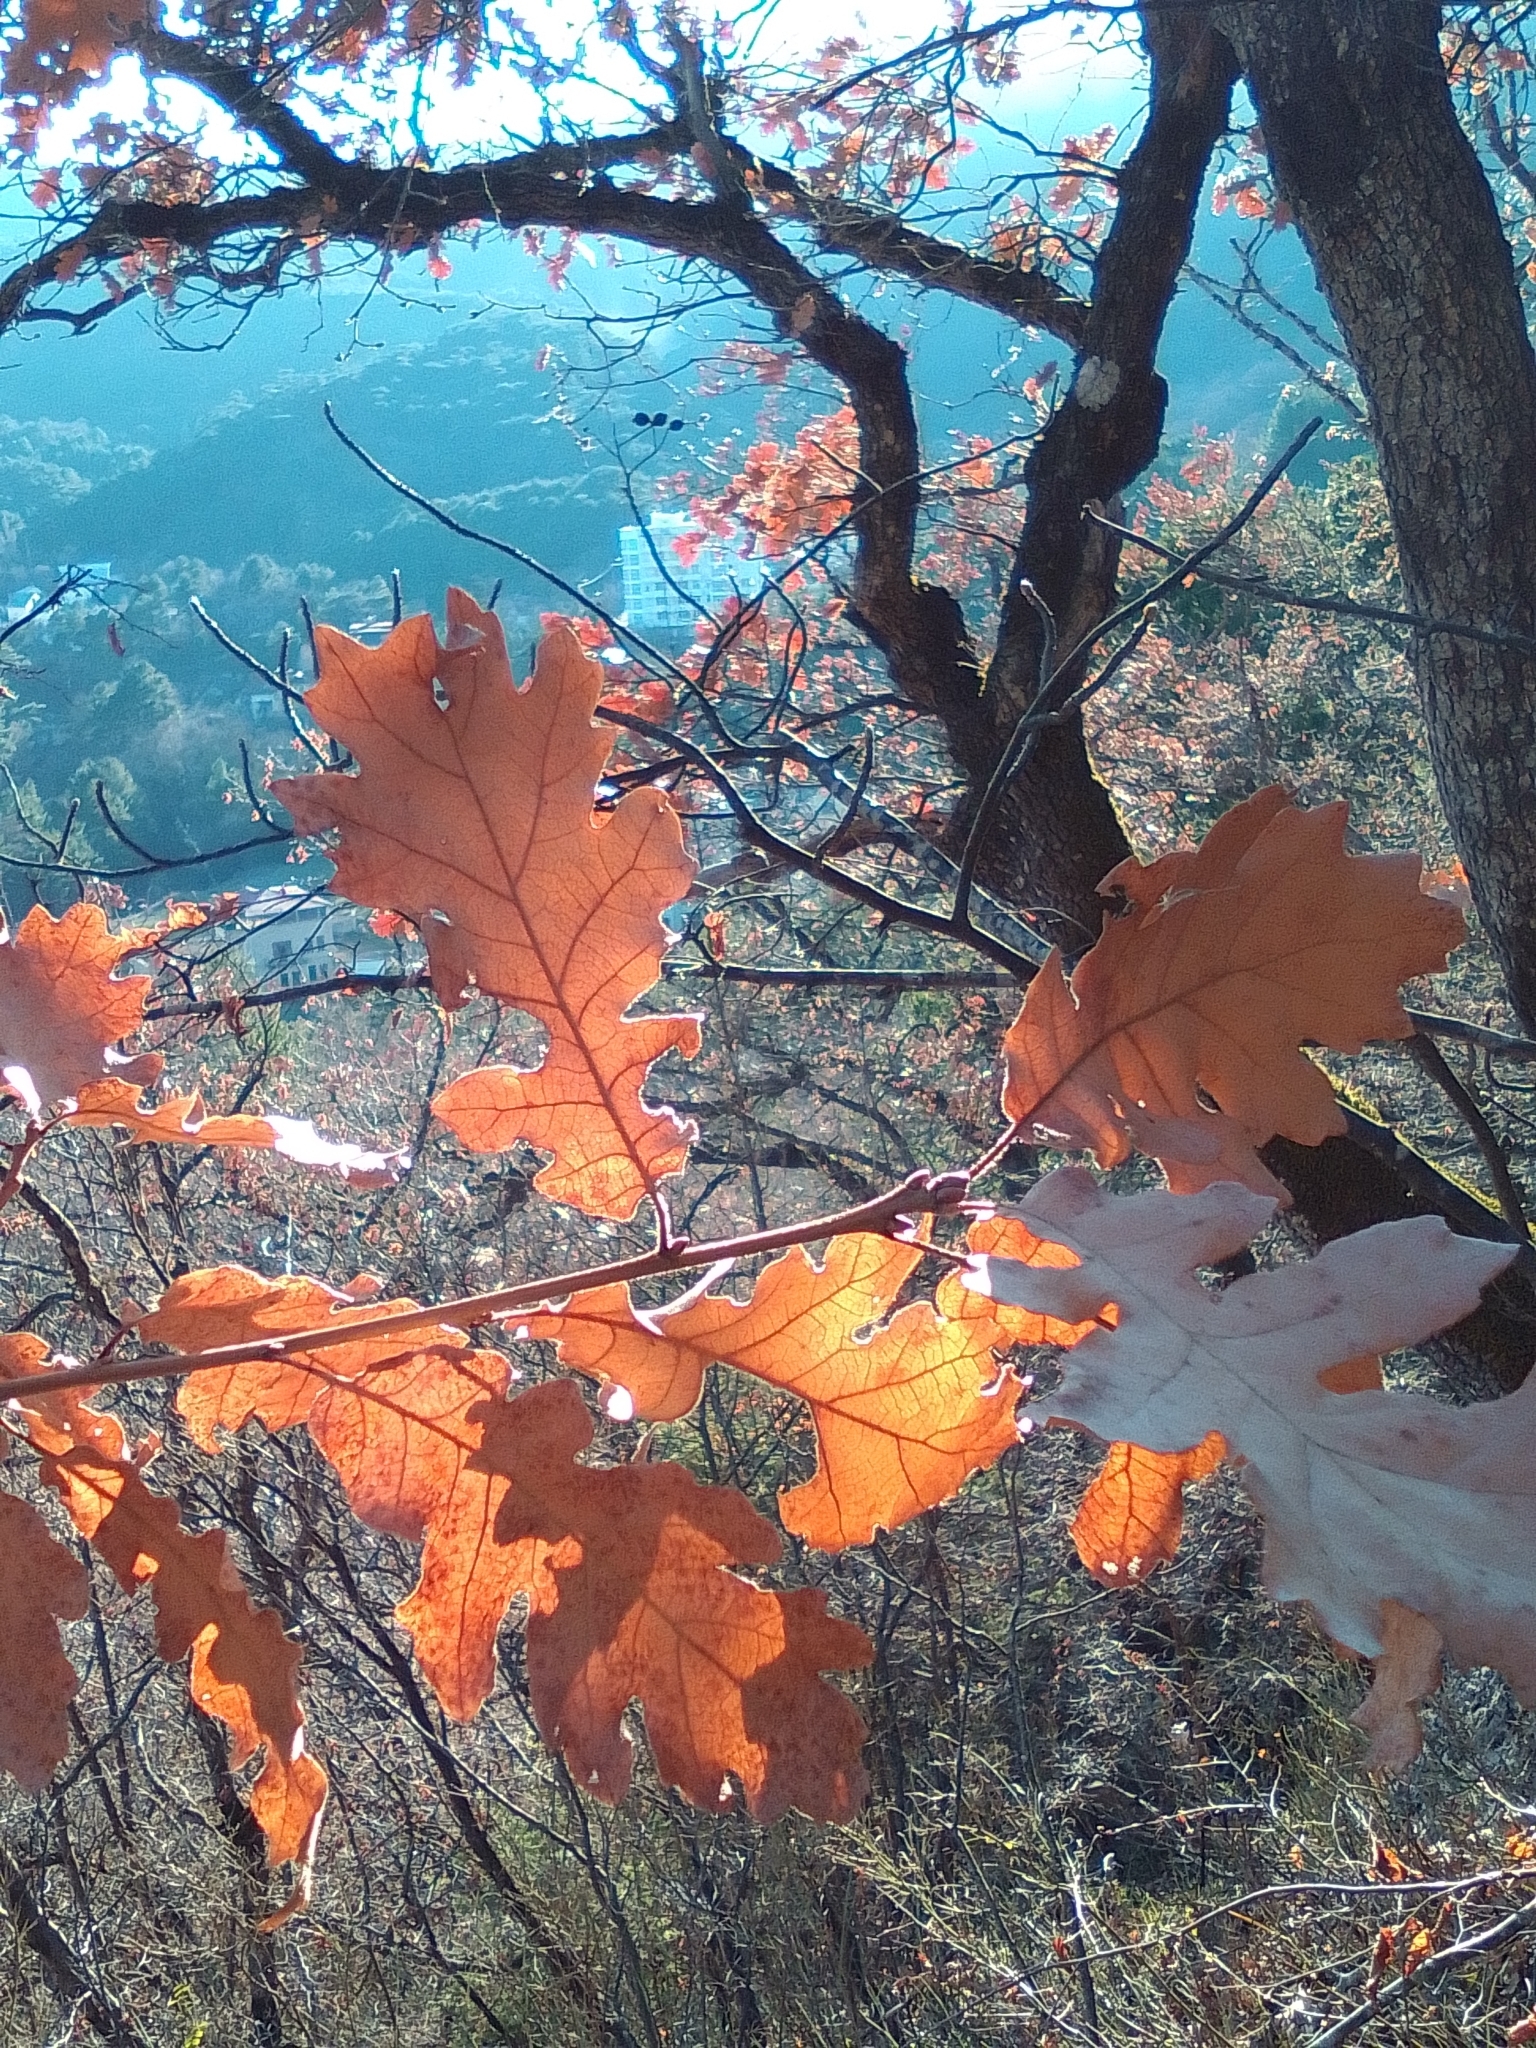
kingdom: Plantae
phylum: Tracheophyta
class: Magnoliopsida
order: Fagales
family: Fagaceae
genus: Quercus
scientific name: Quercus pubescens
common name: Downy oak
